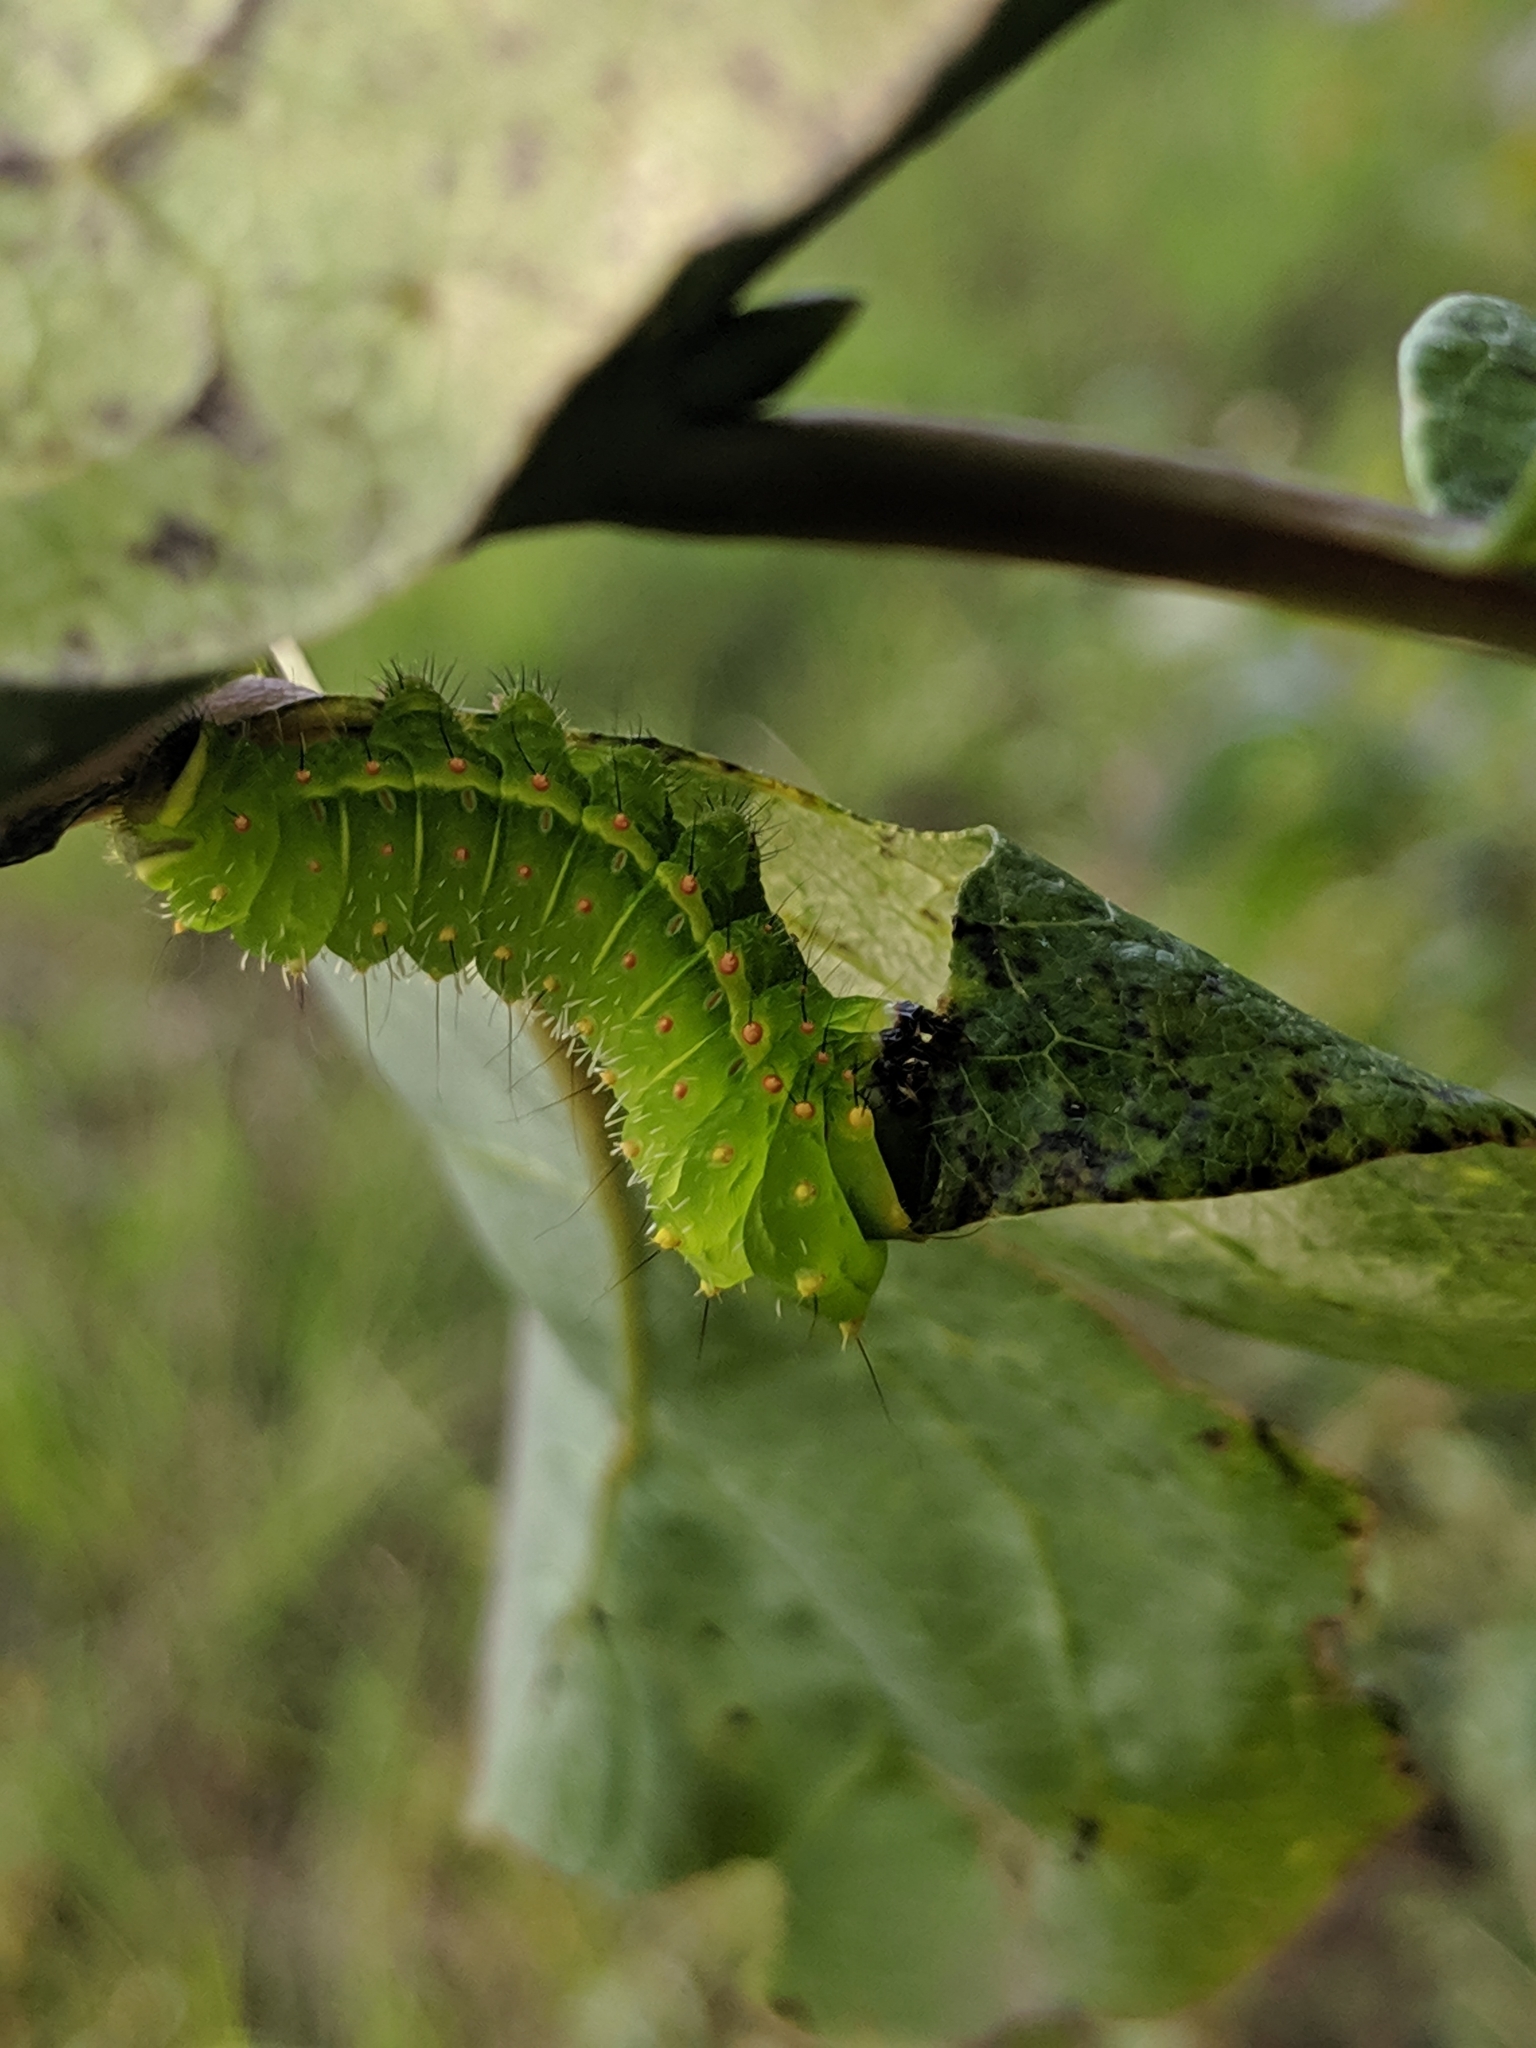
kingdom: Animalia
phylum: Arthropoda
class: Insecta
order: Lepidoptera
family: Saturniidae
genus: Actias
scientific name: Actias luna
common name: Luna moth
